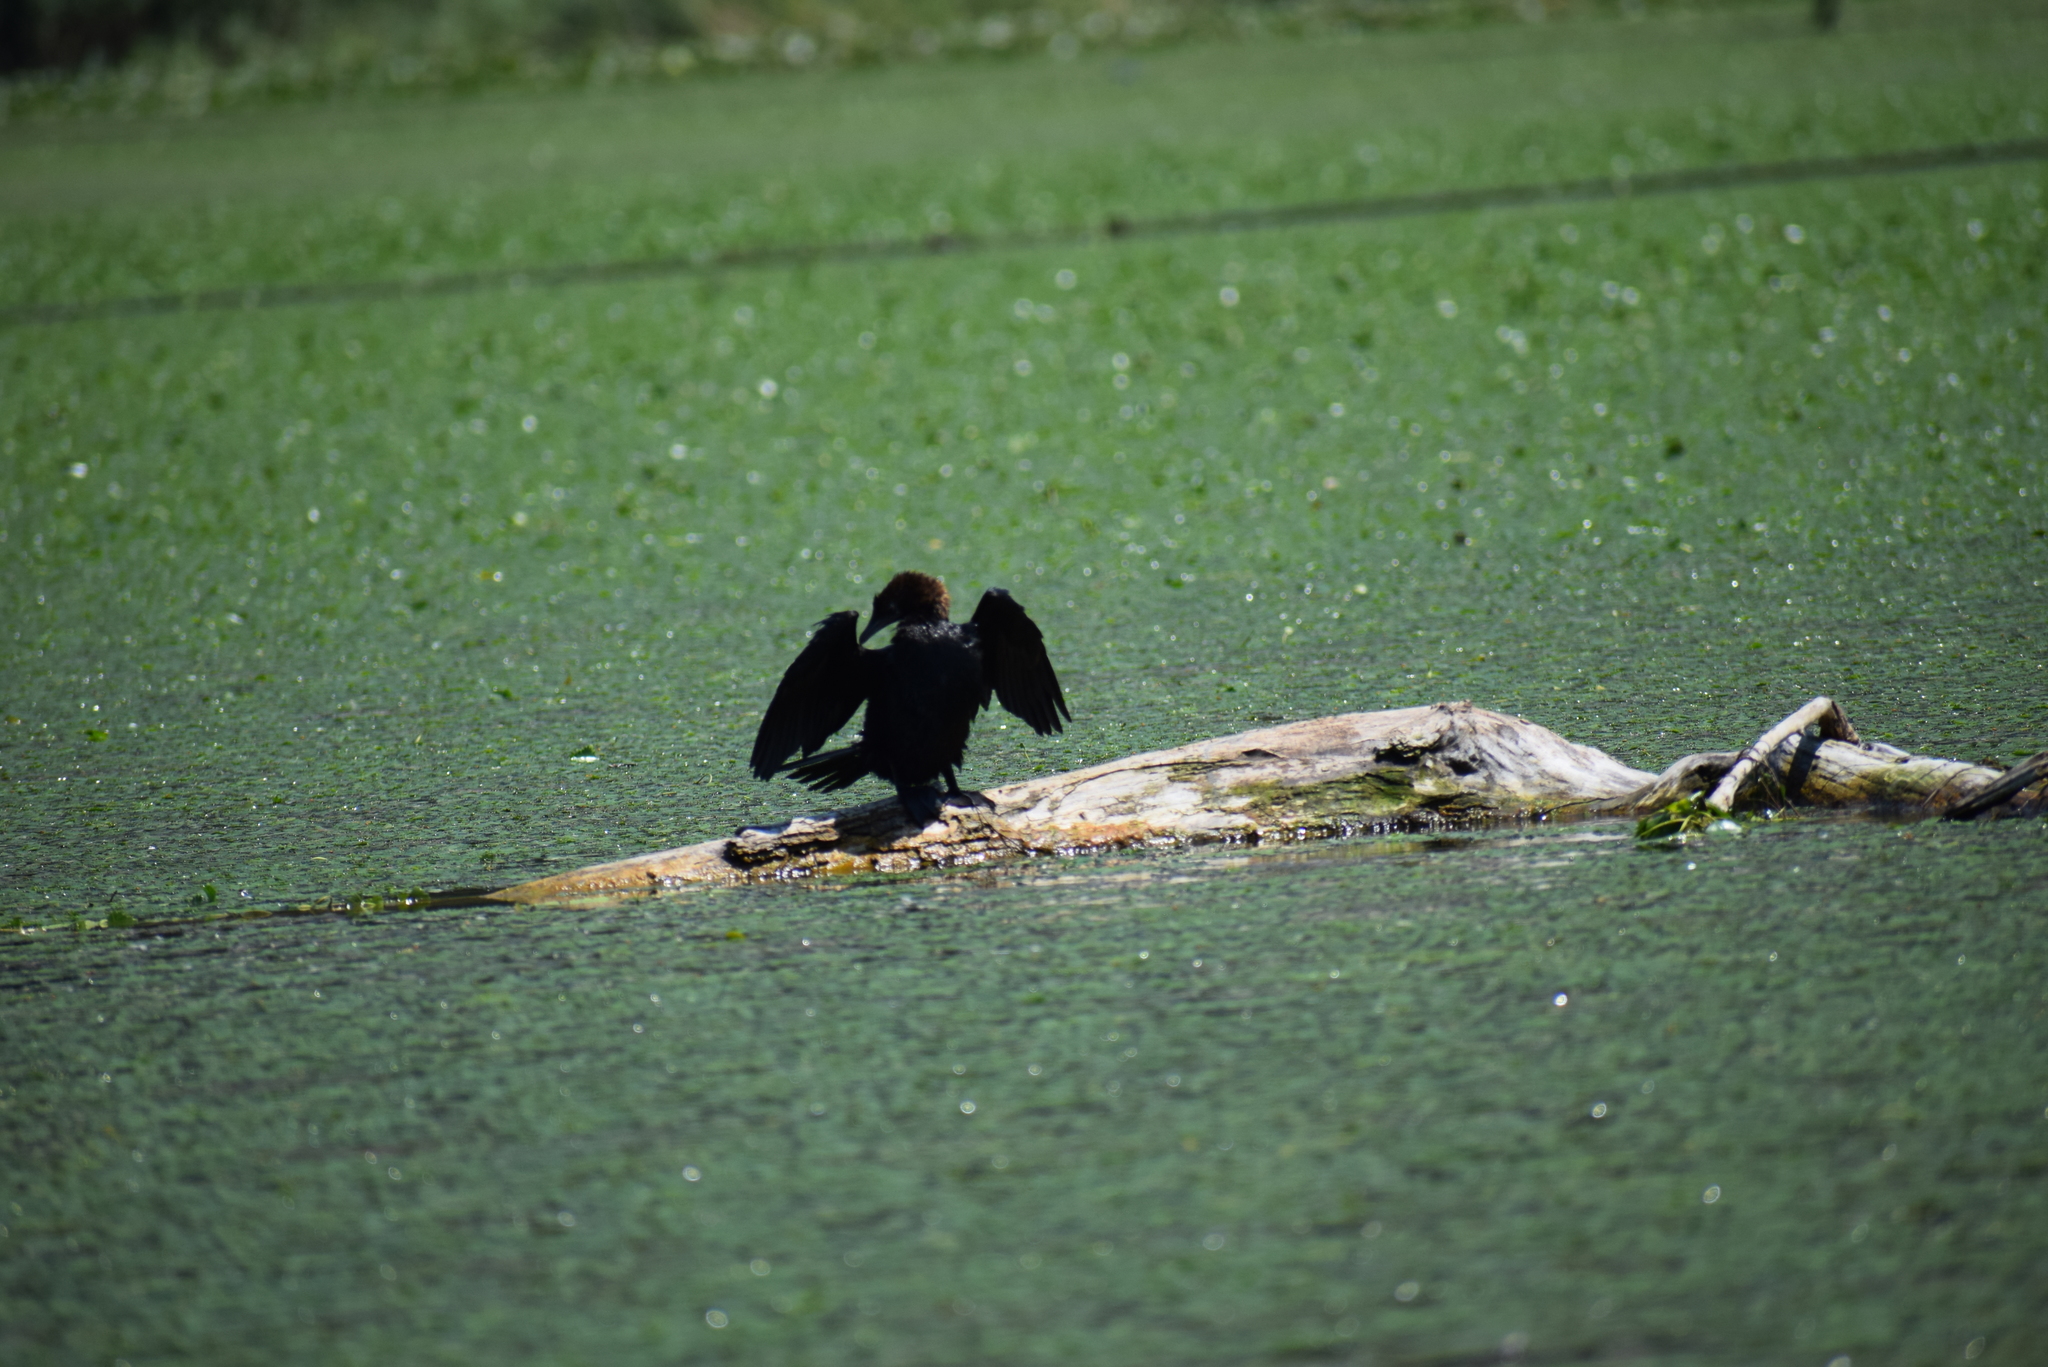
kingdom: Animalia
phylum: Chordata
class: Aves
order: Suliformes
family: Phalacrocoracidae
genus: Microcarbo
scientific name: Microcarbo pygmaeus
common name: Pygmy cormorant
